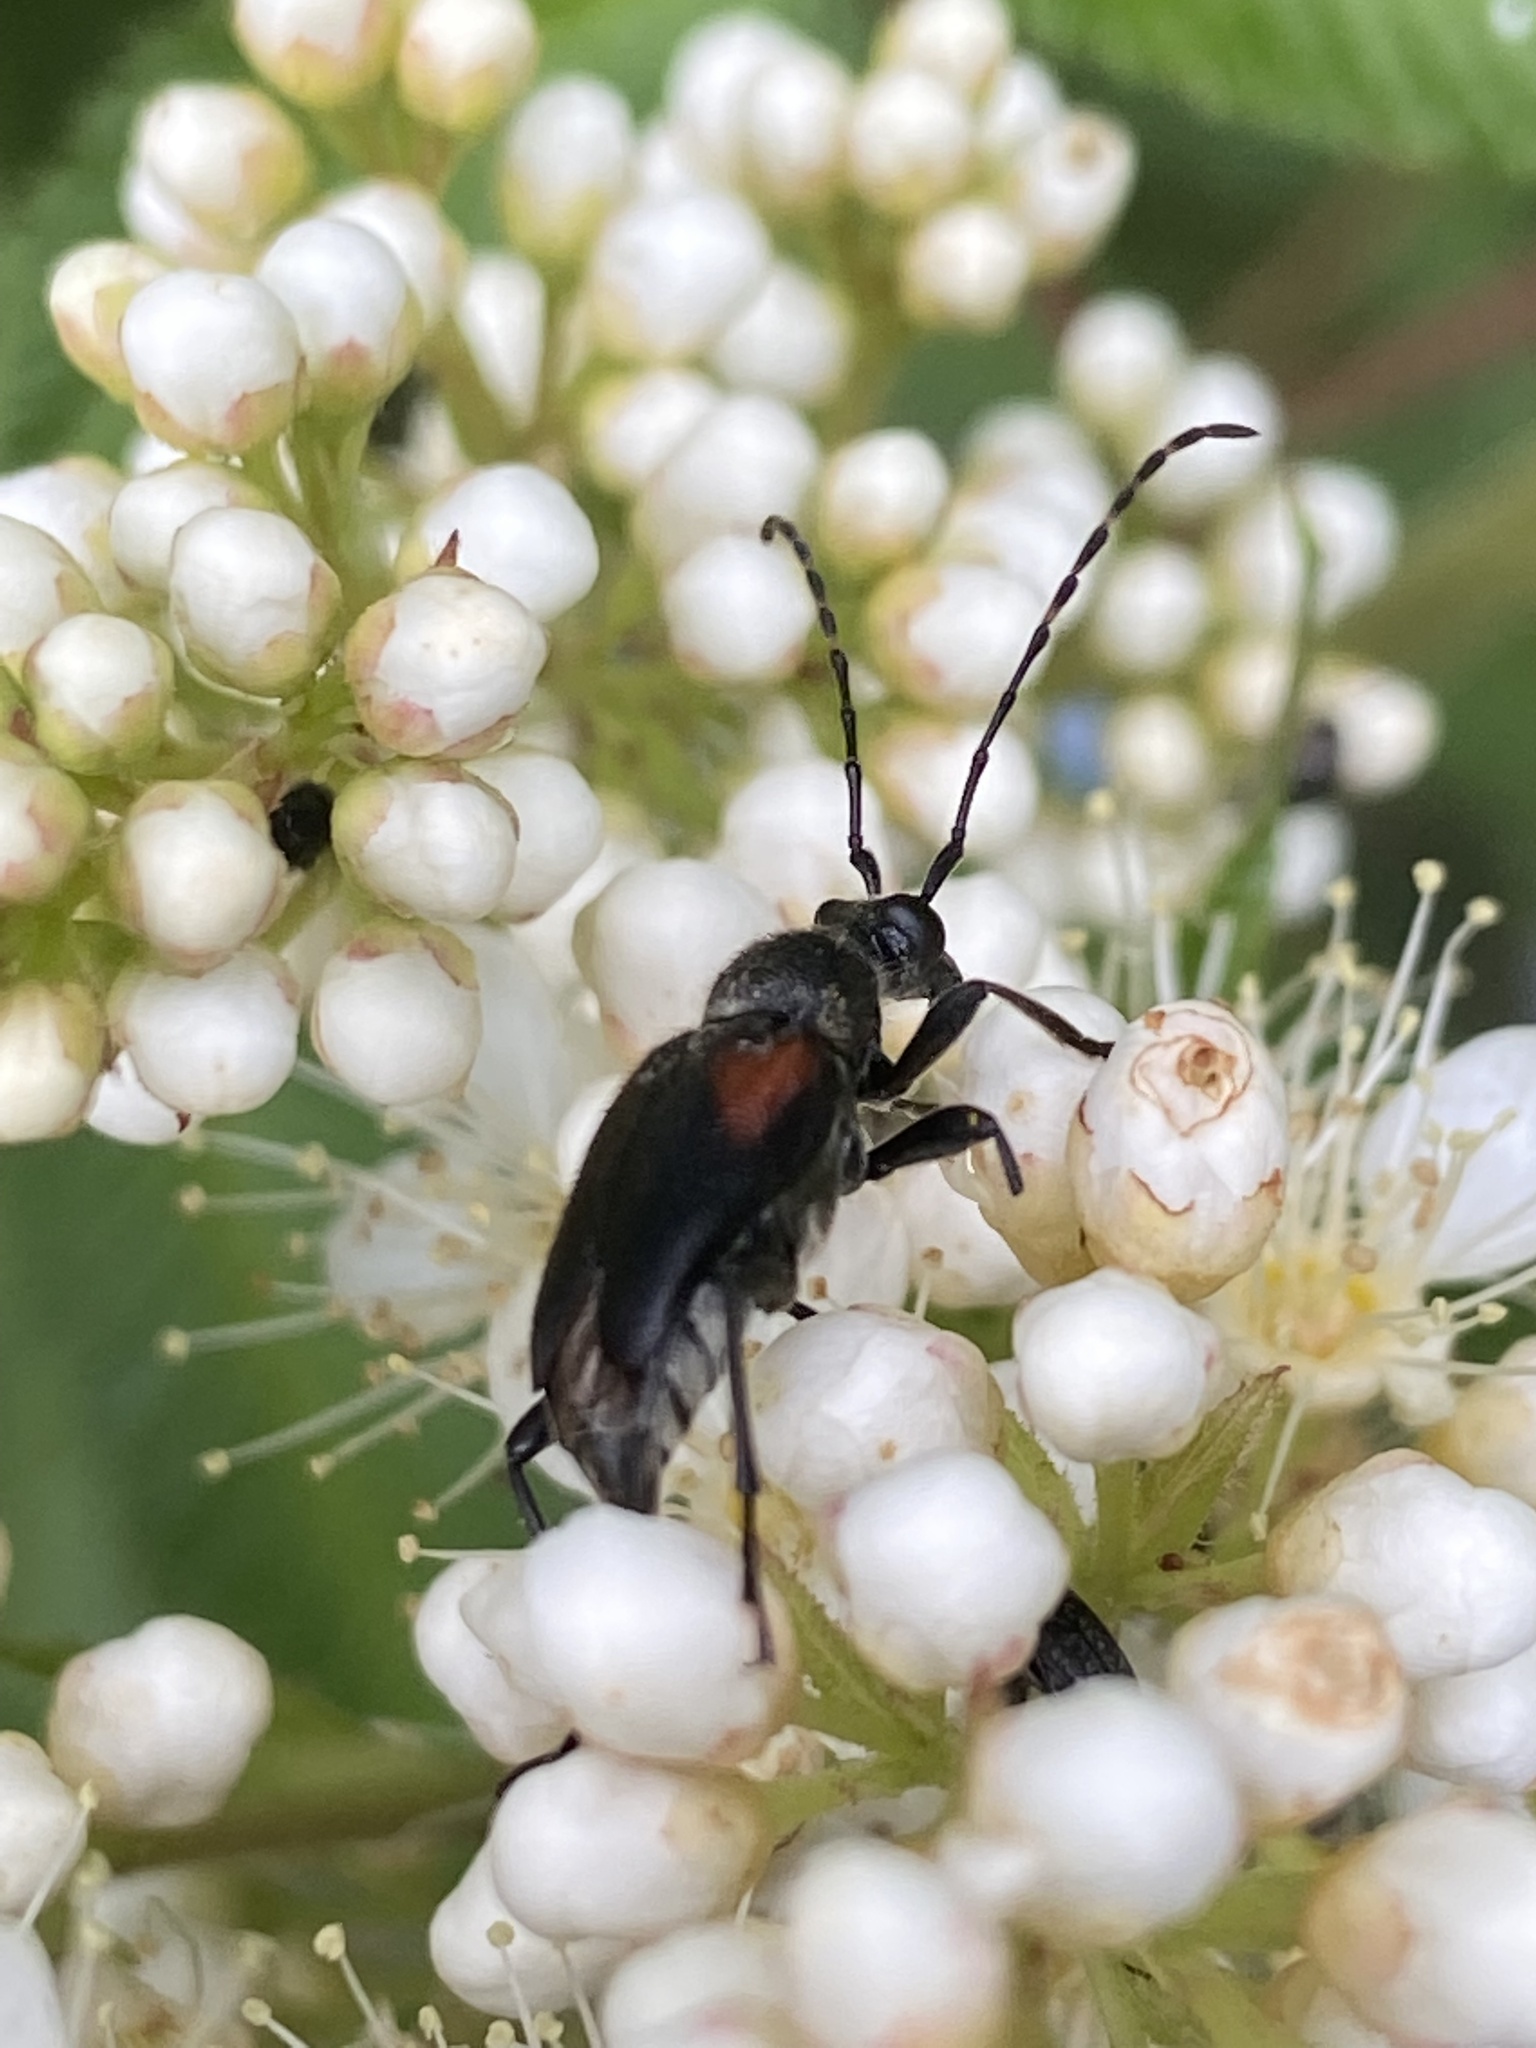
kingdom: Animalia
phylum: Arthropoda
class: Insecta
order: Coleoptera
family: Cerambycidae
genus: Brachyleptura
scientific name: Brachyleptura vagans
